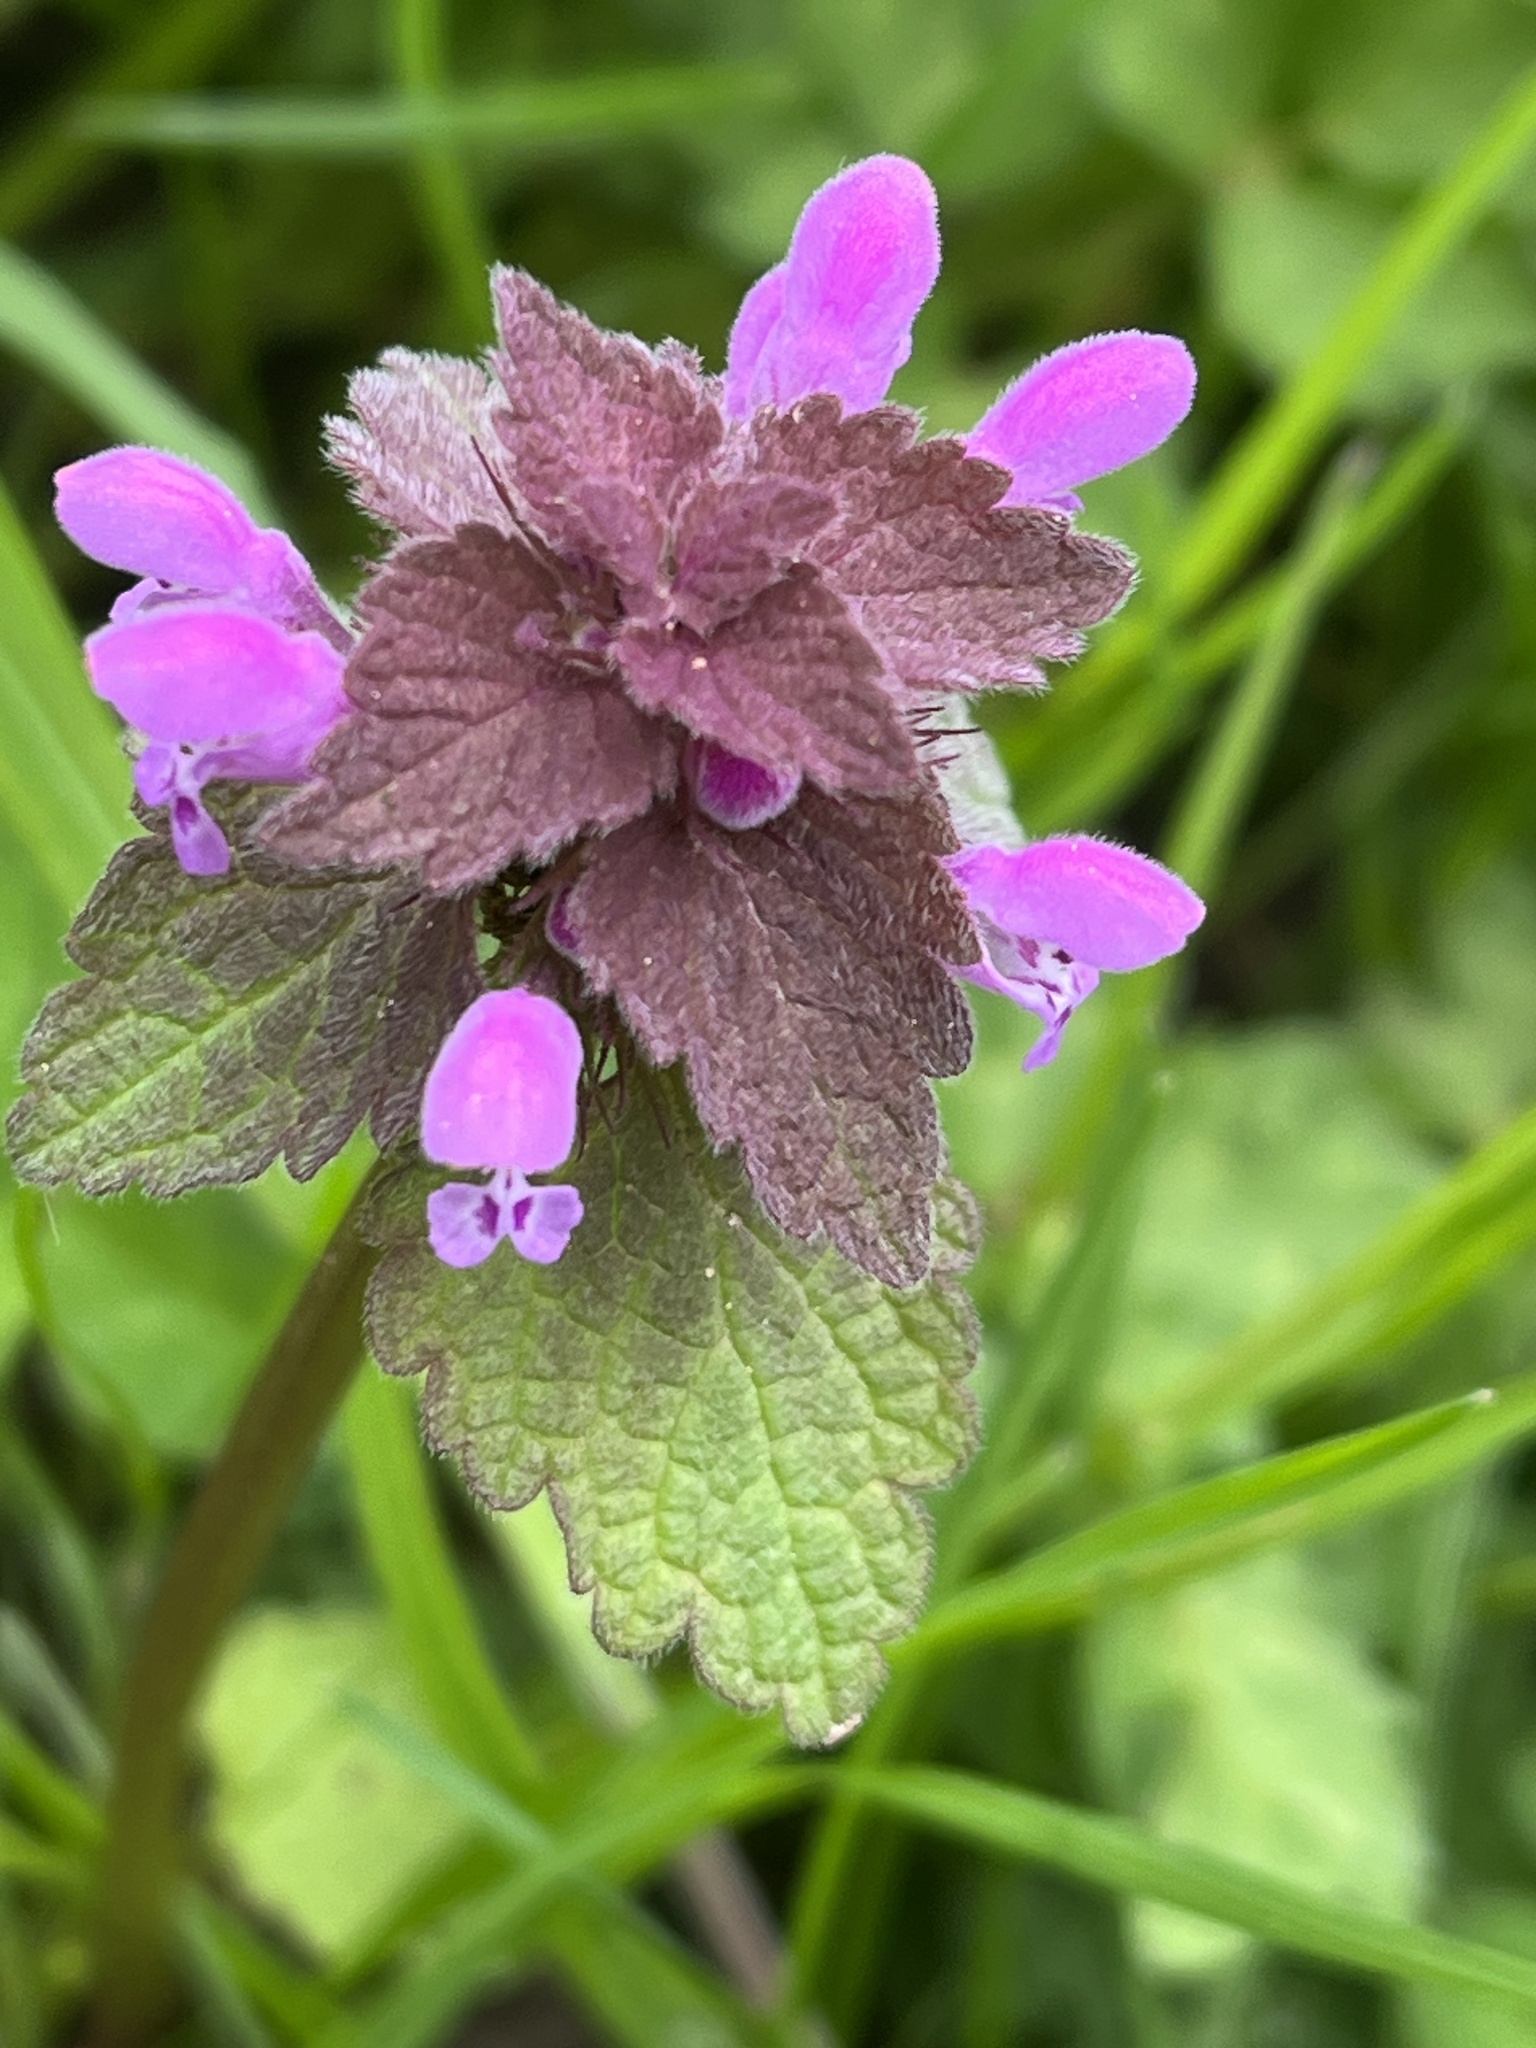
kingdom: Plantae
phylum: Tracheophyta
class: Magnoliopsida
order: Lamiales
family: Lamiaceae
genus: Lamium
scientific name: Lamium purpureum
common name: Red dead-nettle
